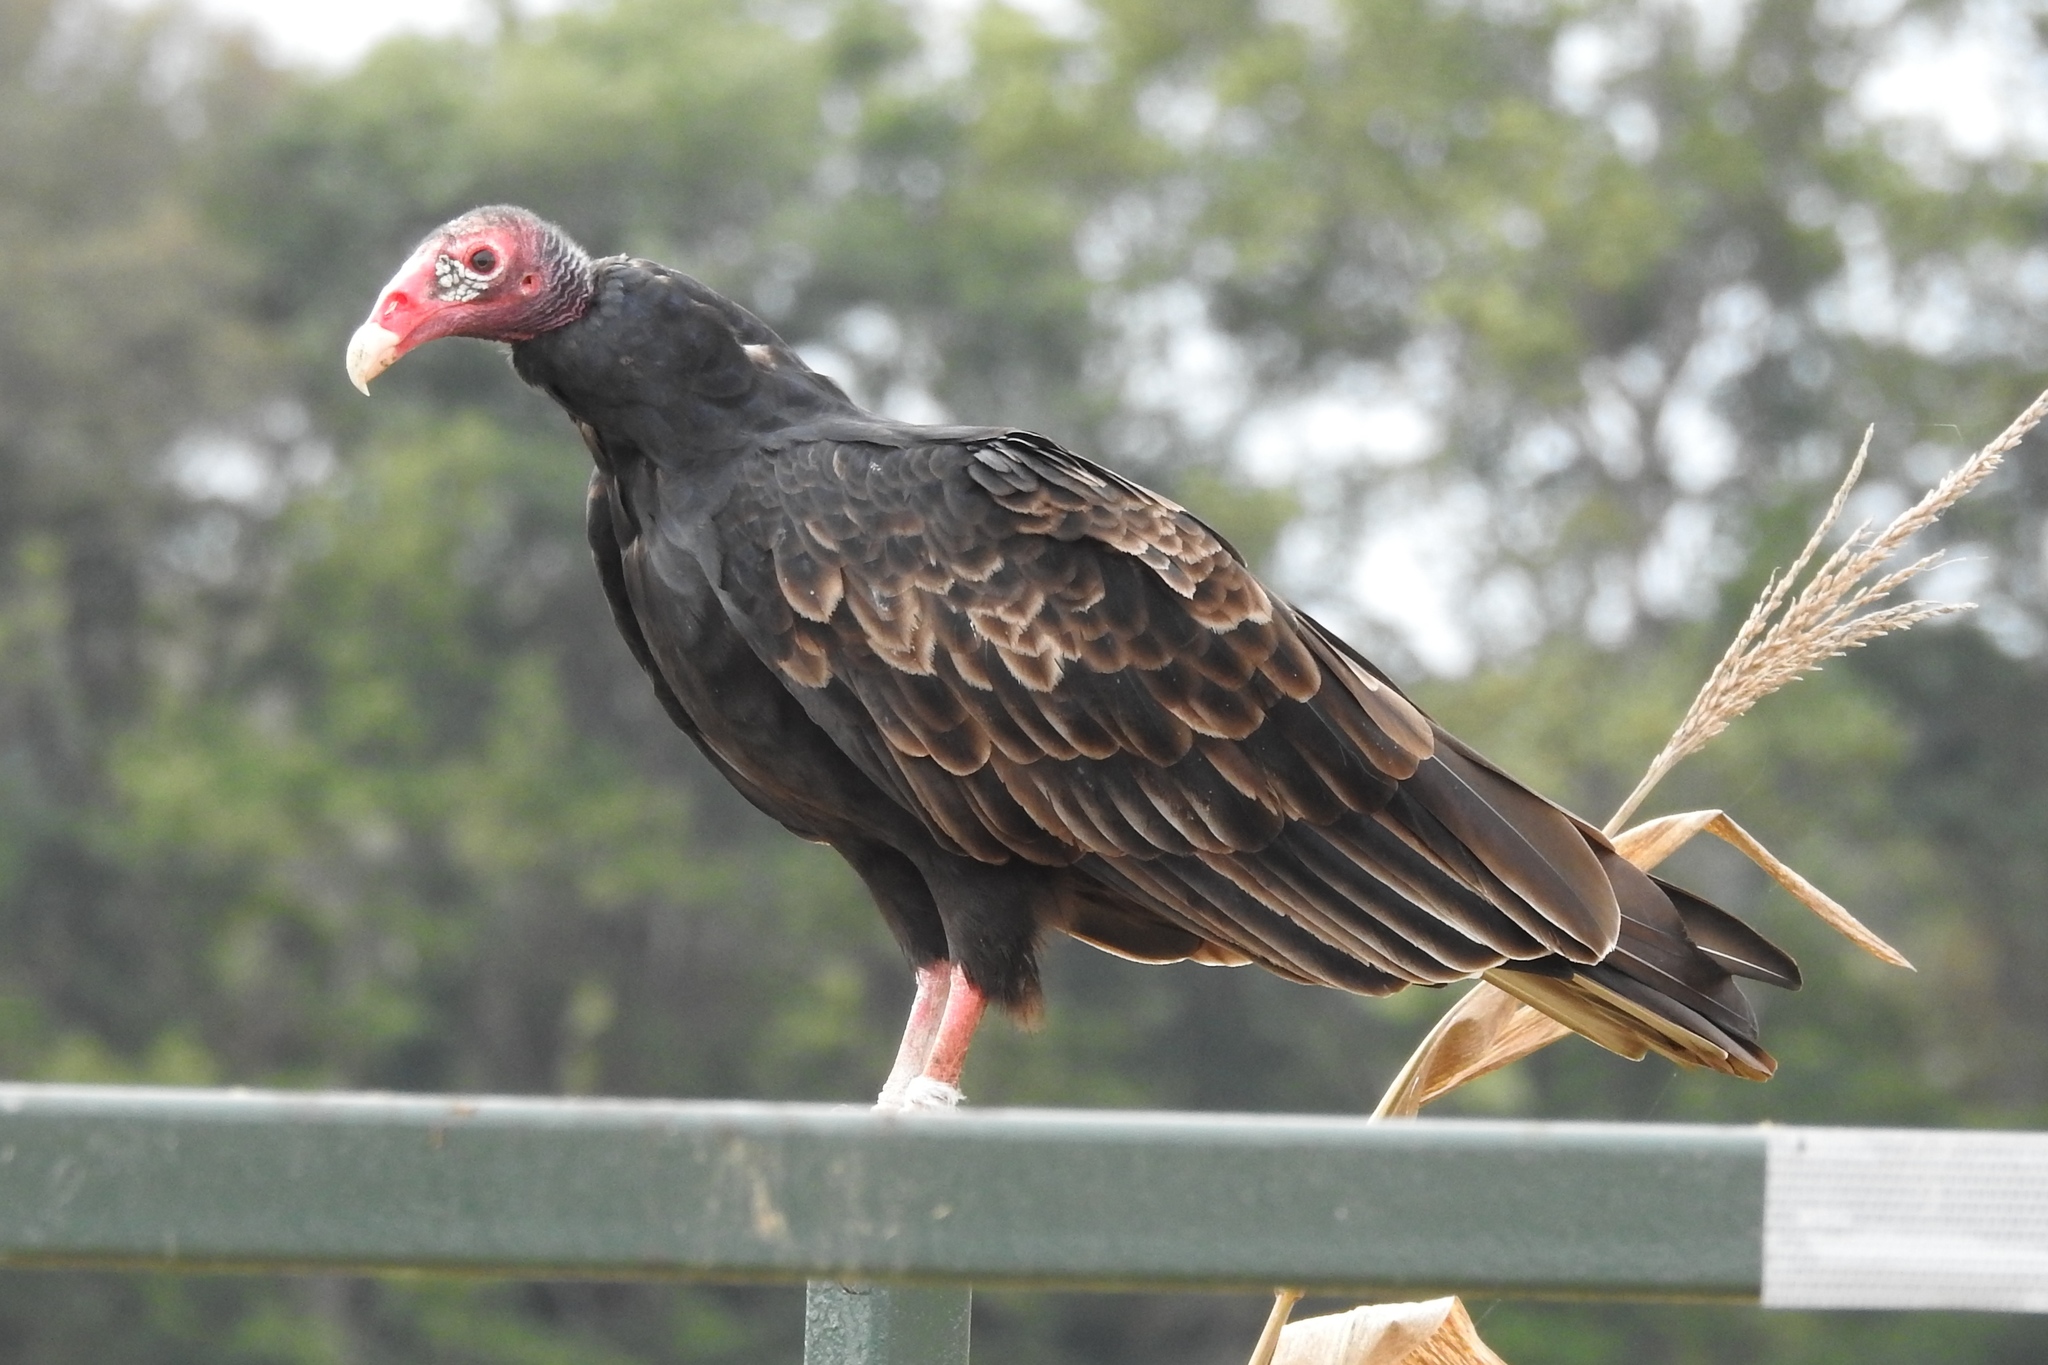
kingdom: Animalia
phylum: Chordata
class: Aves
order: Accipitriformes
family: Cathartidae
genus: Cathartes
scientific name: Cathartes aura
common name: Turkey vulture
